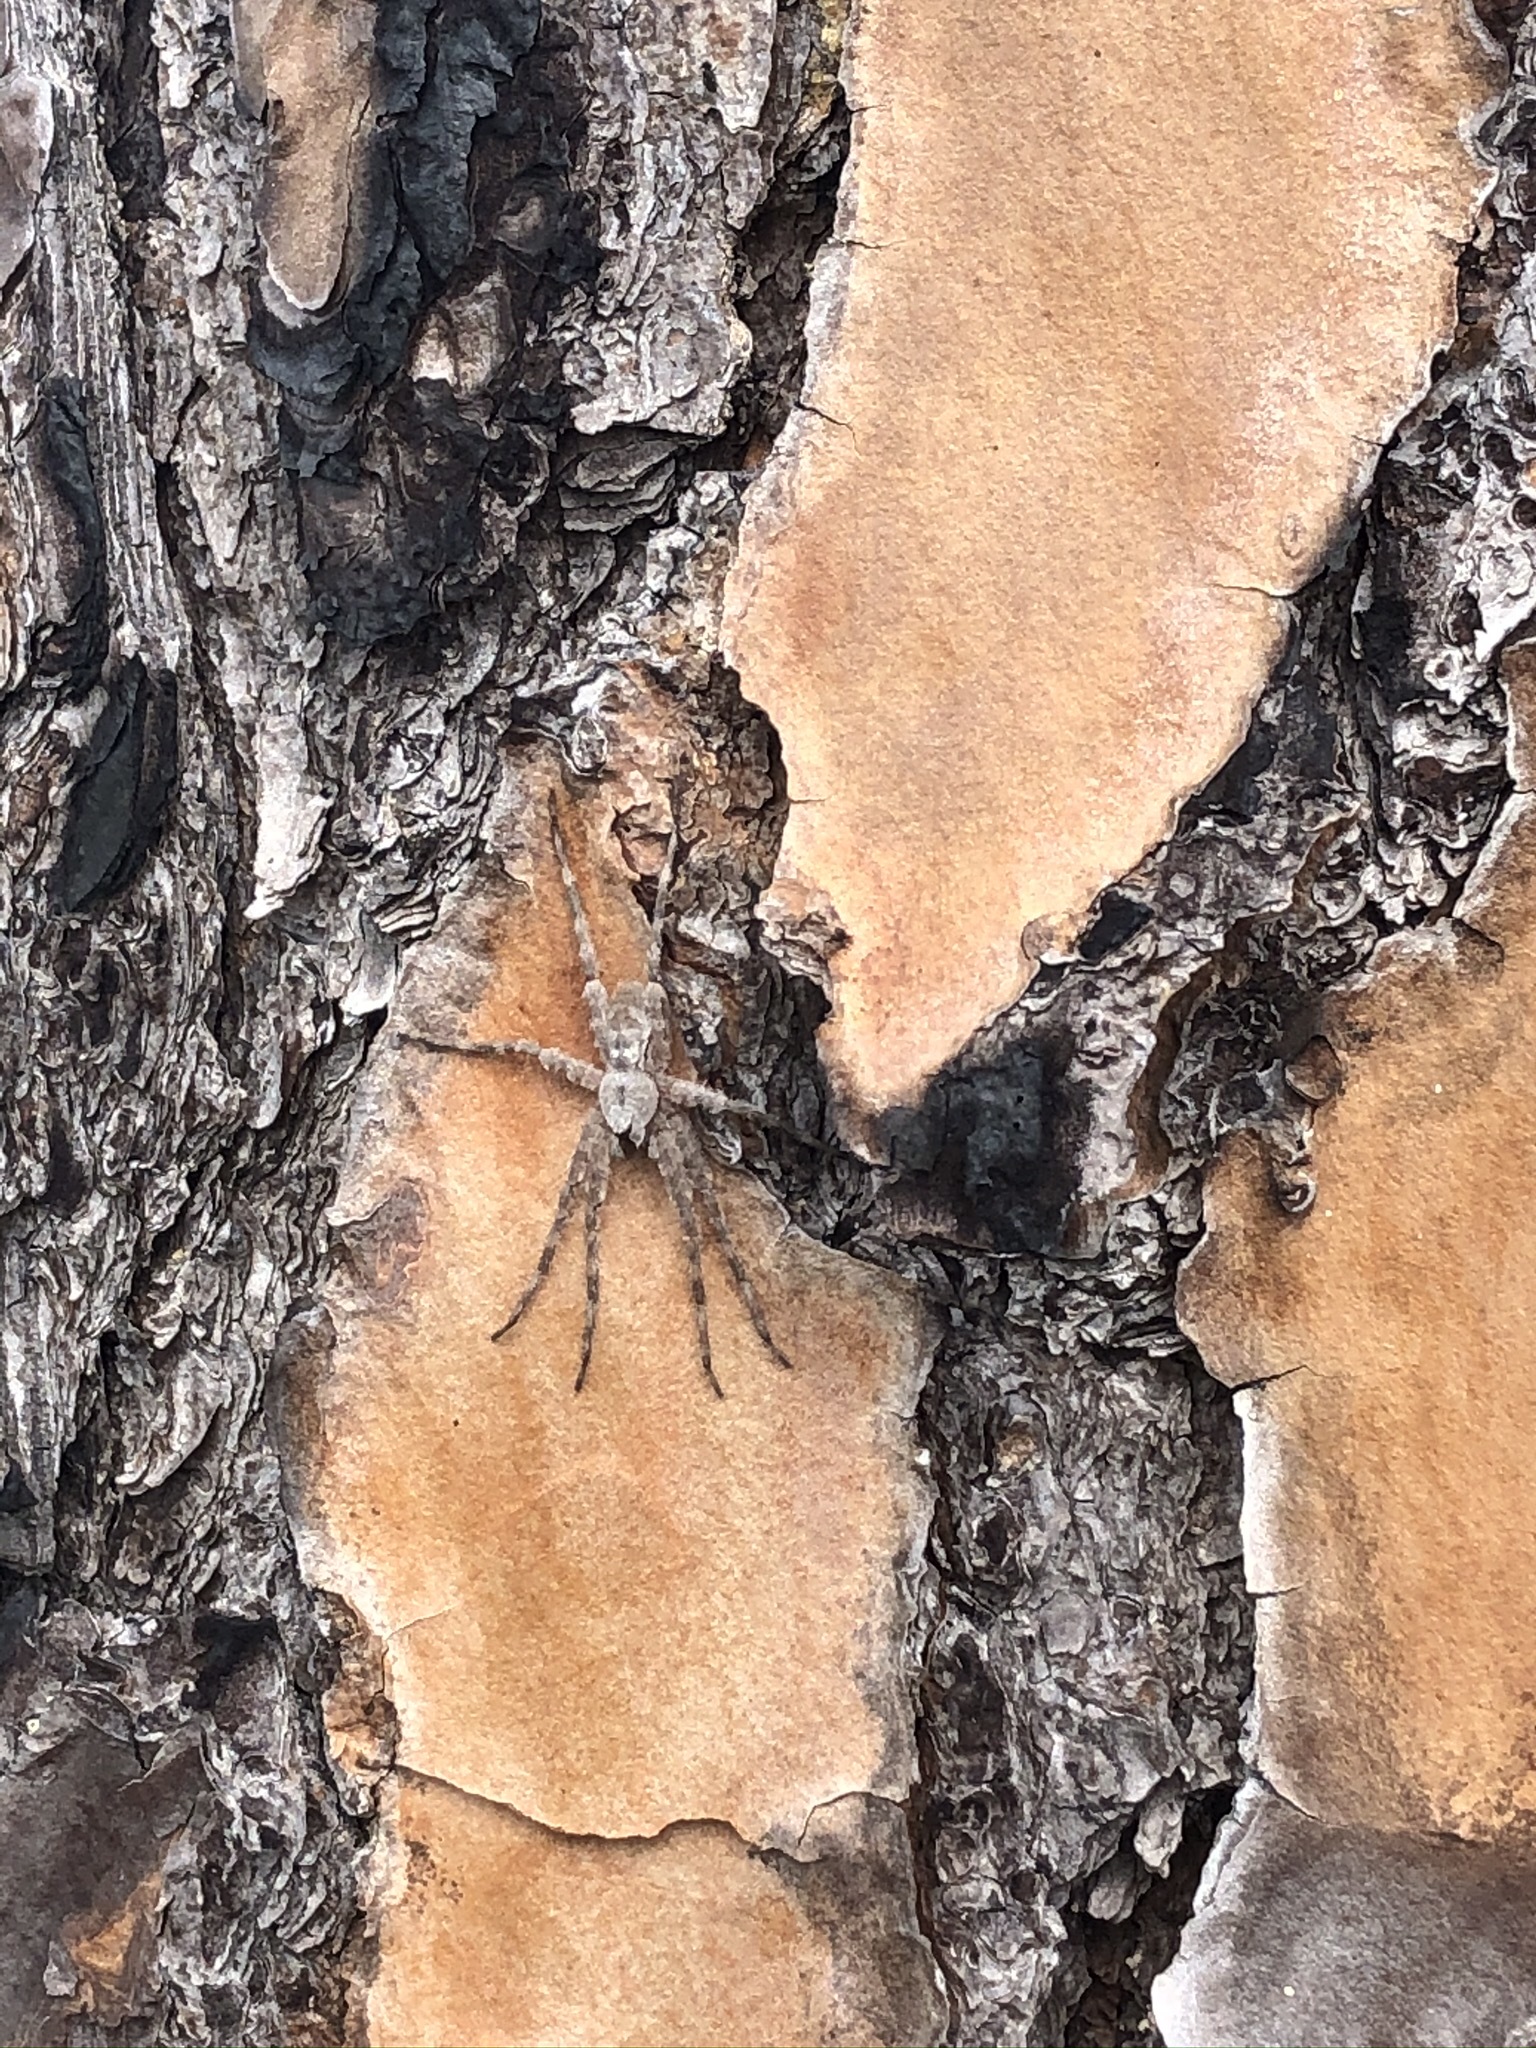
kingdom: Animalia
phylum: Arthropoda
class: Arachnida
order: Araneae
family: Pisauridae
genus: Dolomedes
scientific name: Dolomedes albineus
